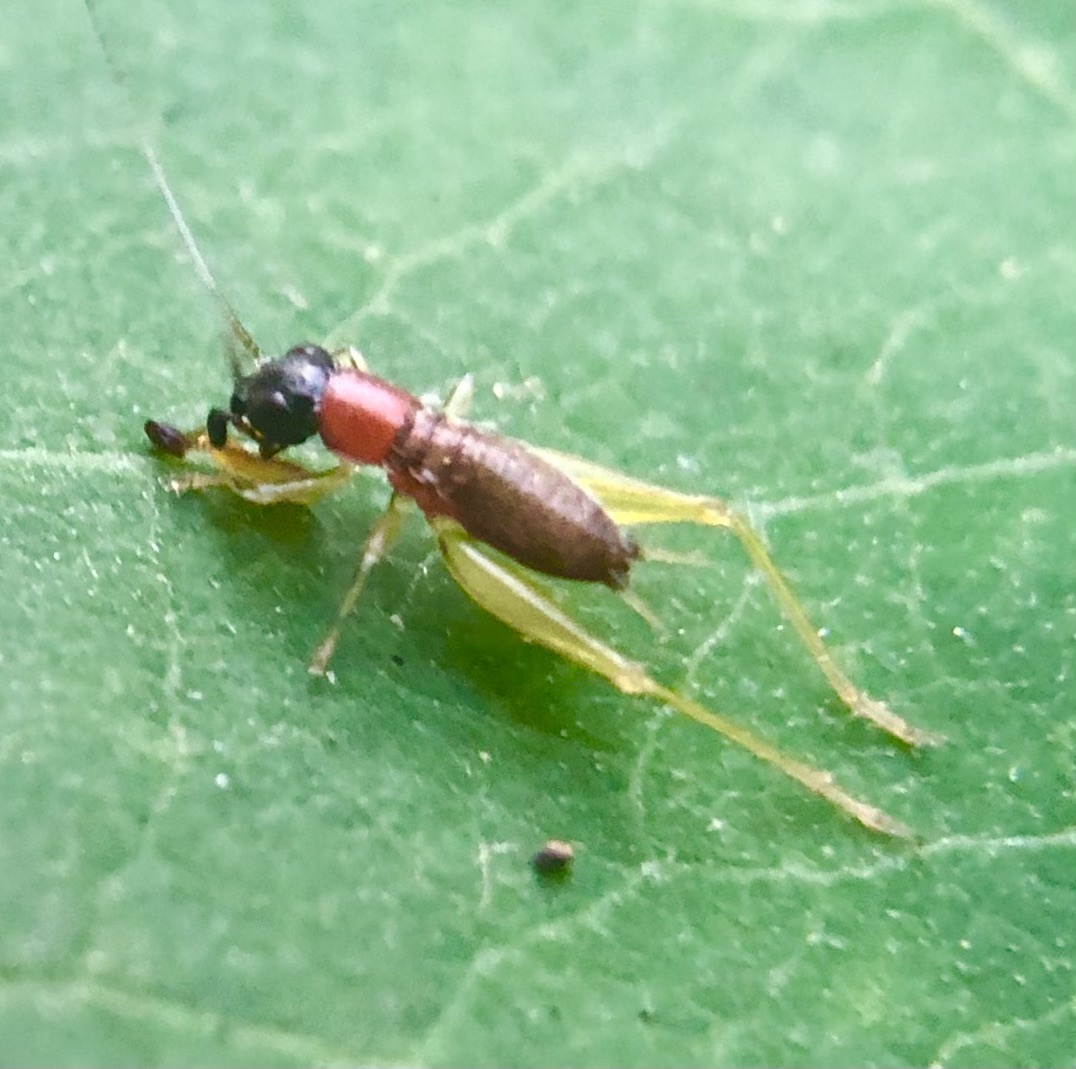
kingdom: Animalia
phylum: Arthropoda
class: Insecta
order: Orthoptera
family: Trigonidiidae
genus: Phyllopalpus
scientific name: Phyllopalpus pulchellus
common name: Handsome trig
